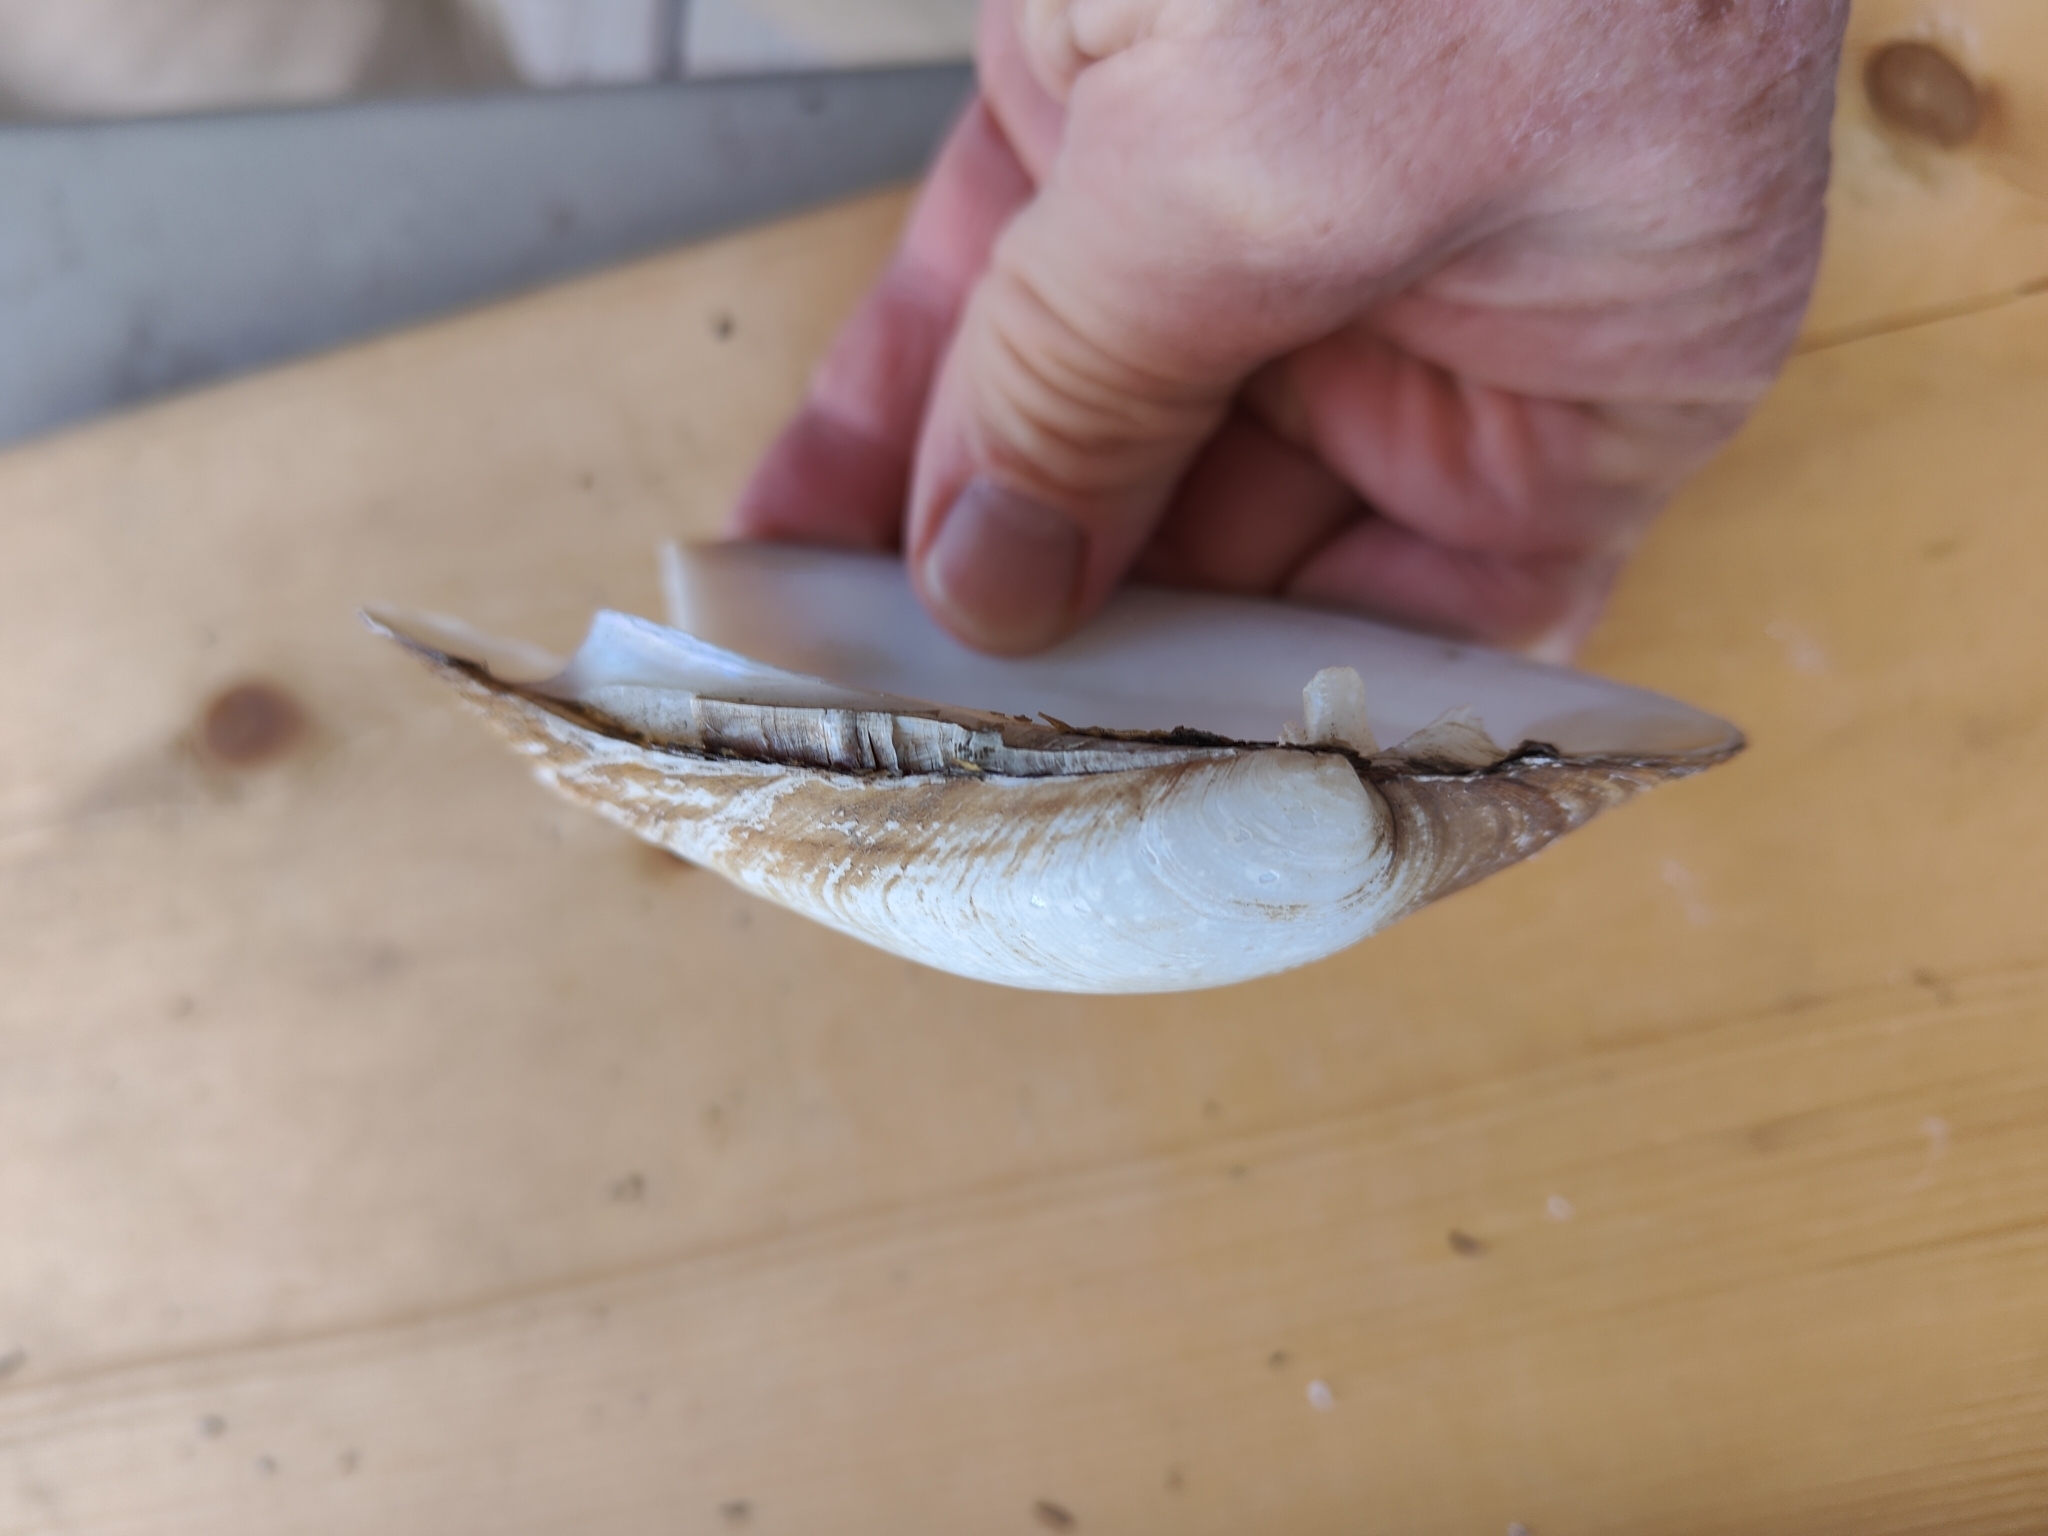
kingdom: Animalia
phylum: Mollusca
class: Bivalvia
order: Unionida
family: Unionidae
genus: Lampsilis
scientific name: Lampsilis cardium
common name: Plain pocketbook
